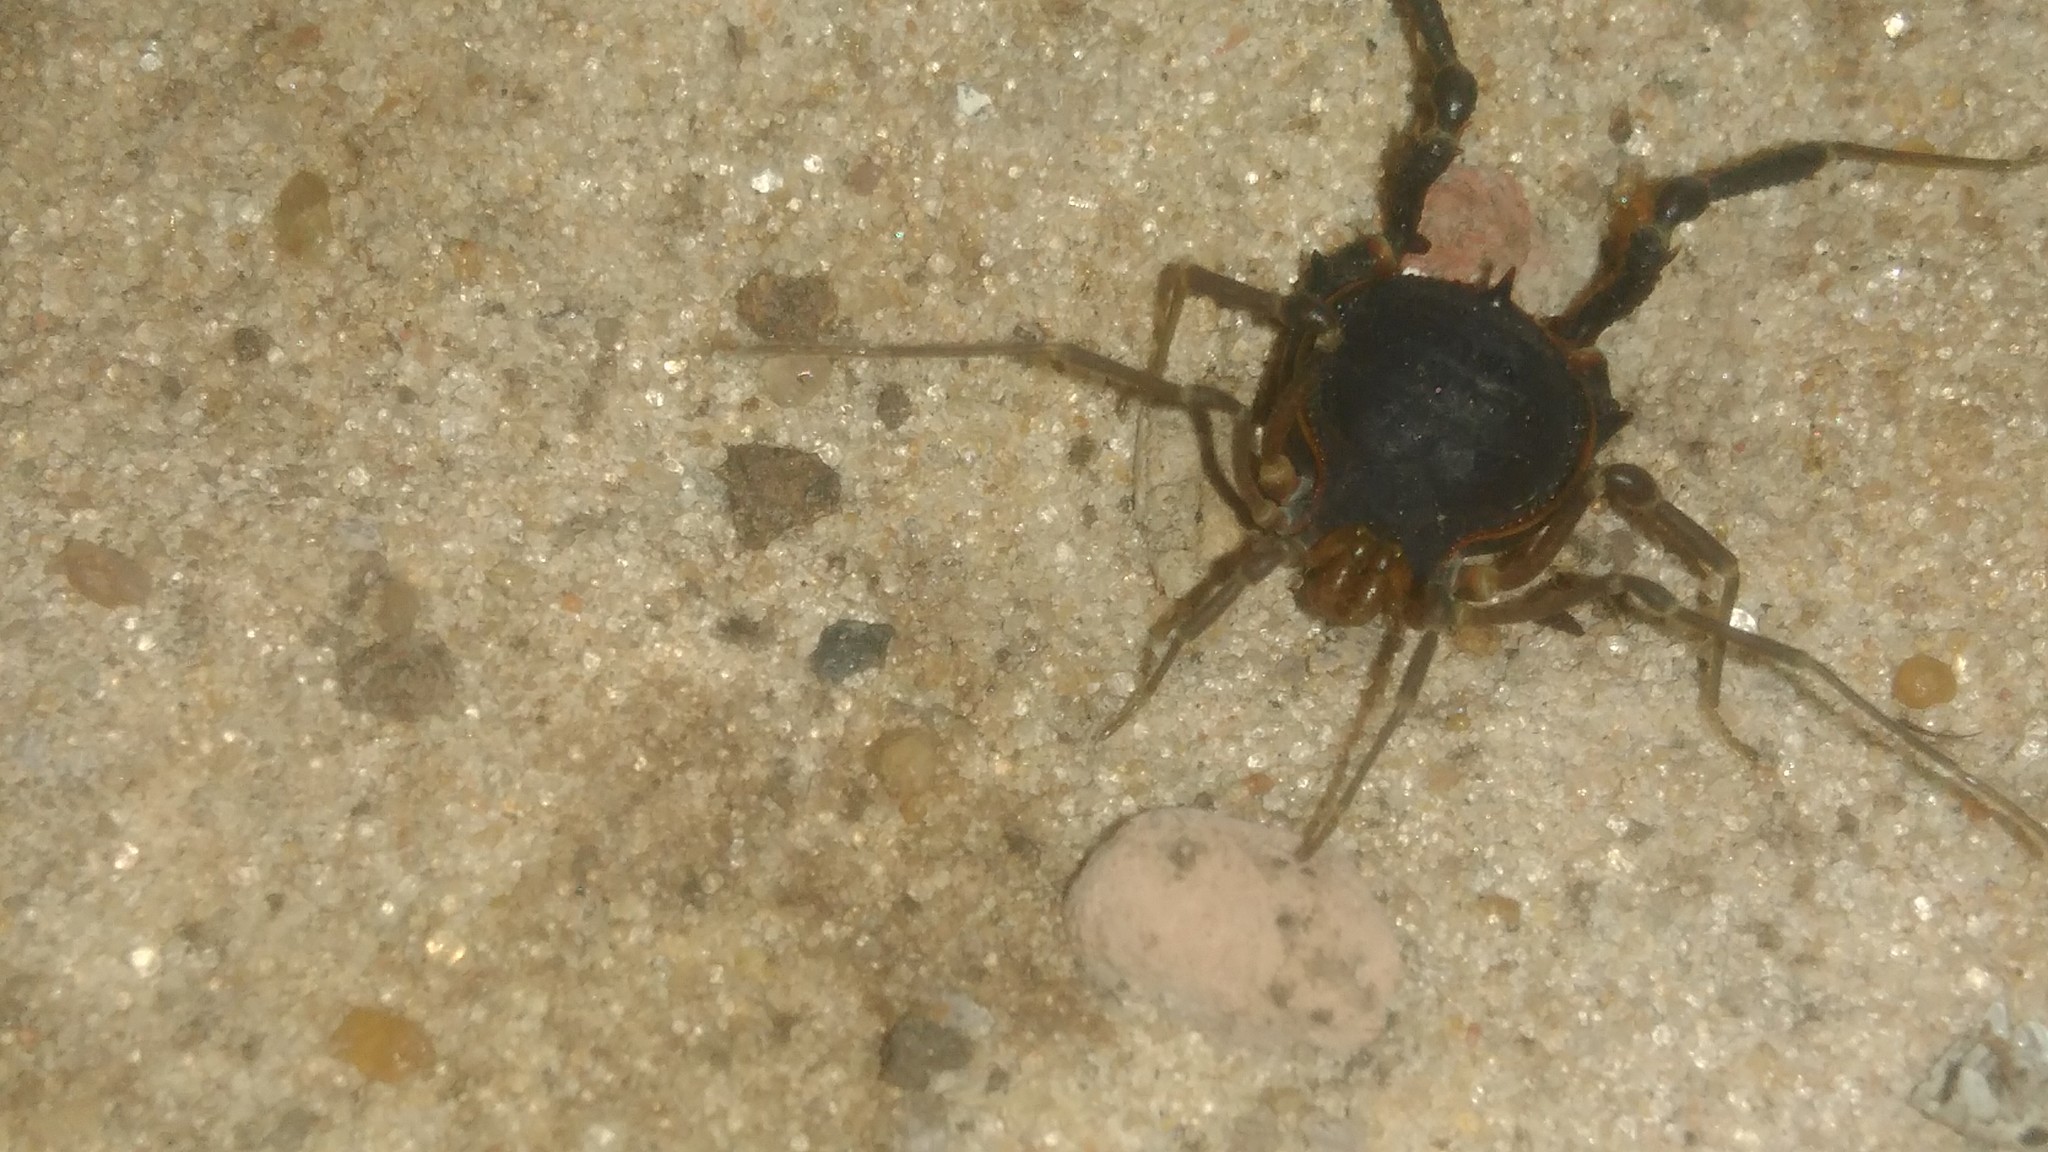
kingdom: Animalia
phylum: Arthropoda
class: Arachnida
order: Opiliones
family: Gonyleptidae
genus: Acanthopachylus
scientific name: Acanthopachylus robustus
